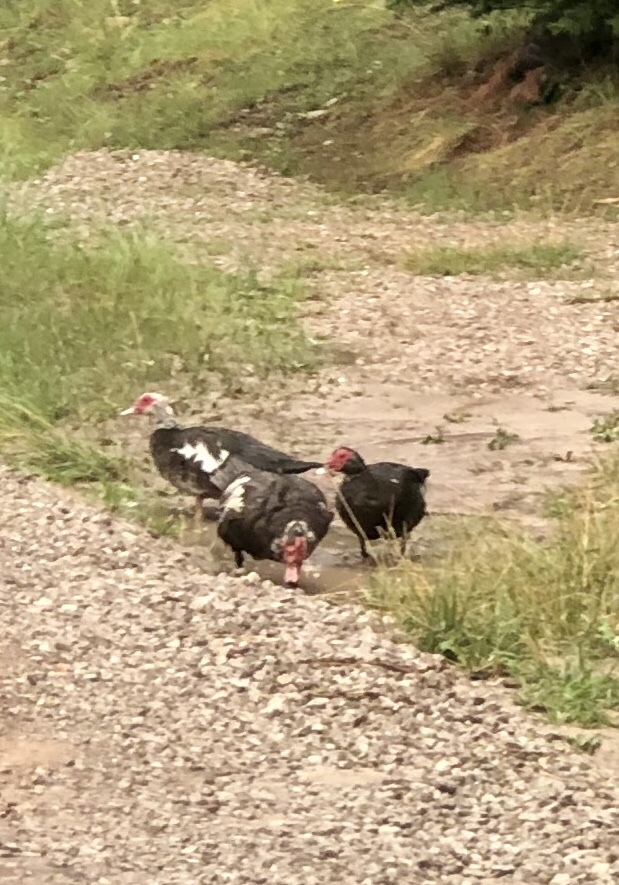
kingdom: Animalia
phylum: Chordata
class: Aves
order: Anseriformes
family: Anatidae
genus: Cairina
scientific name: Cairina moschata
